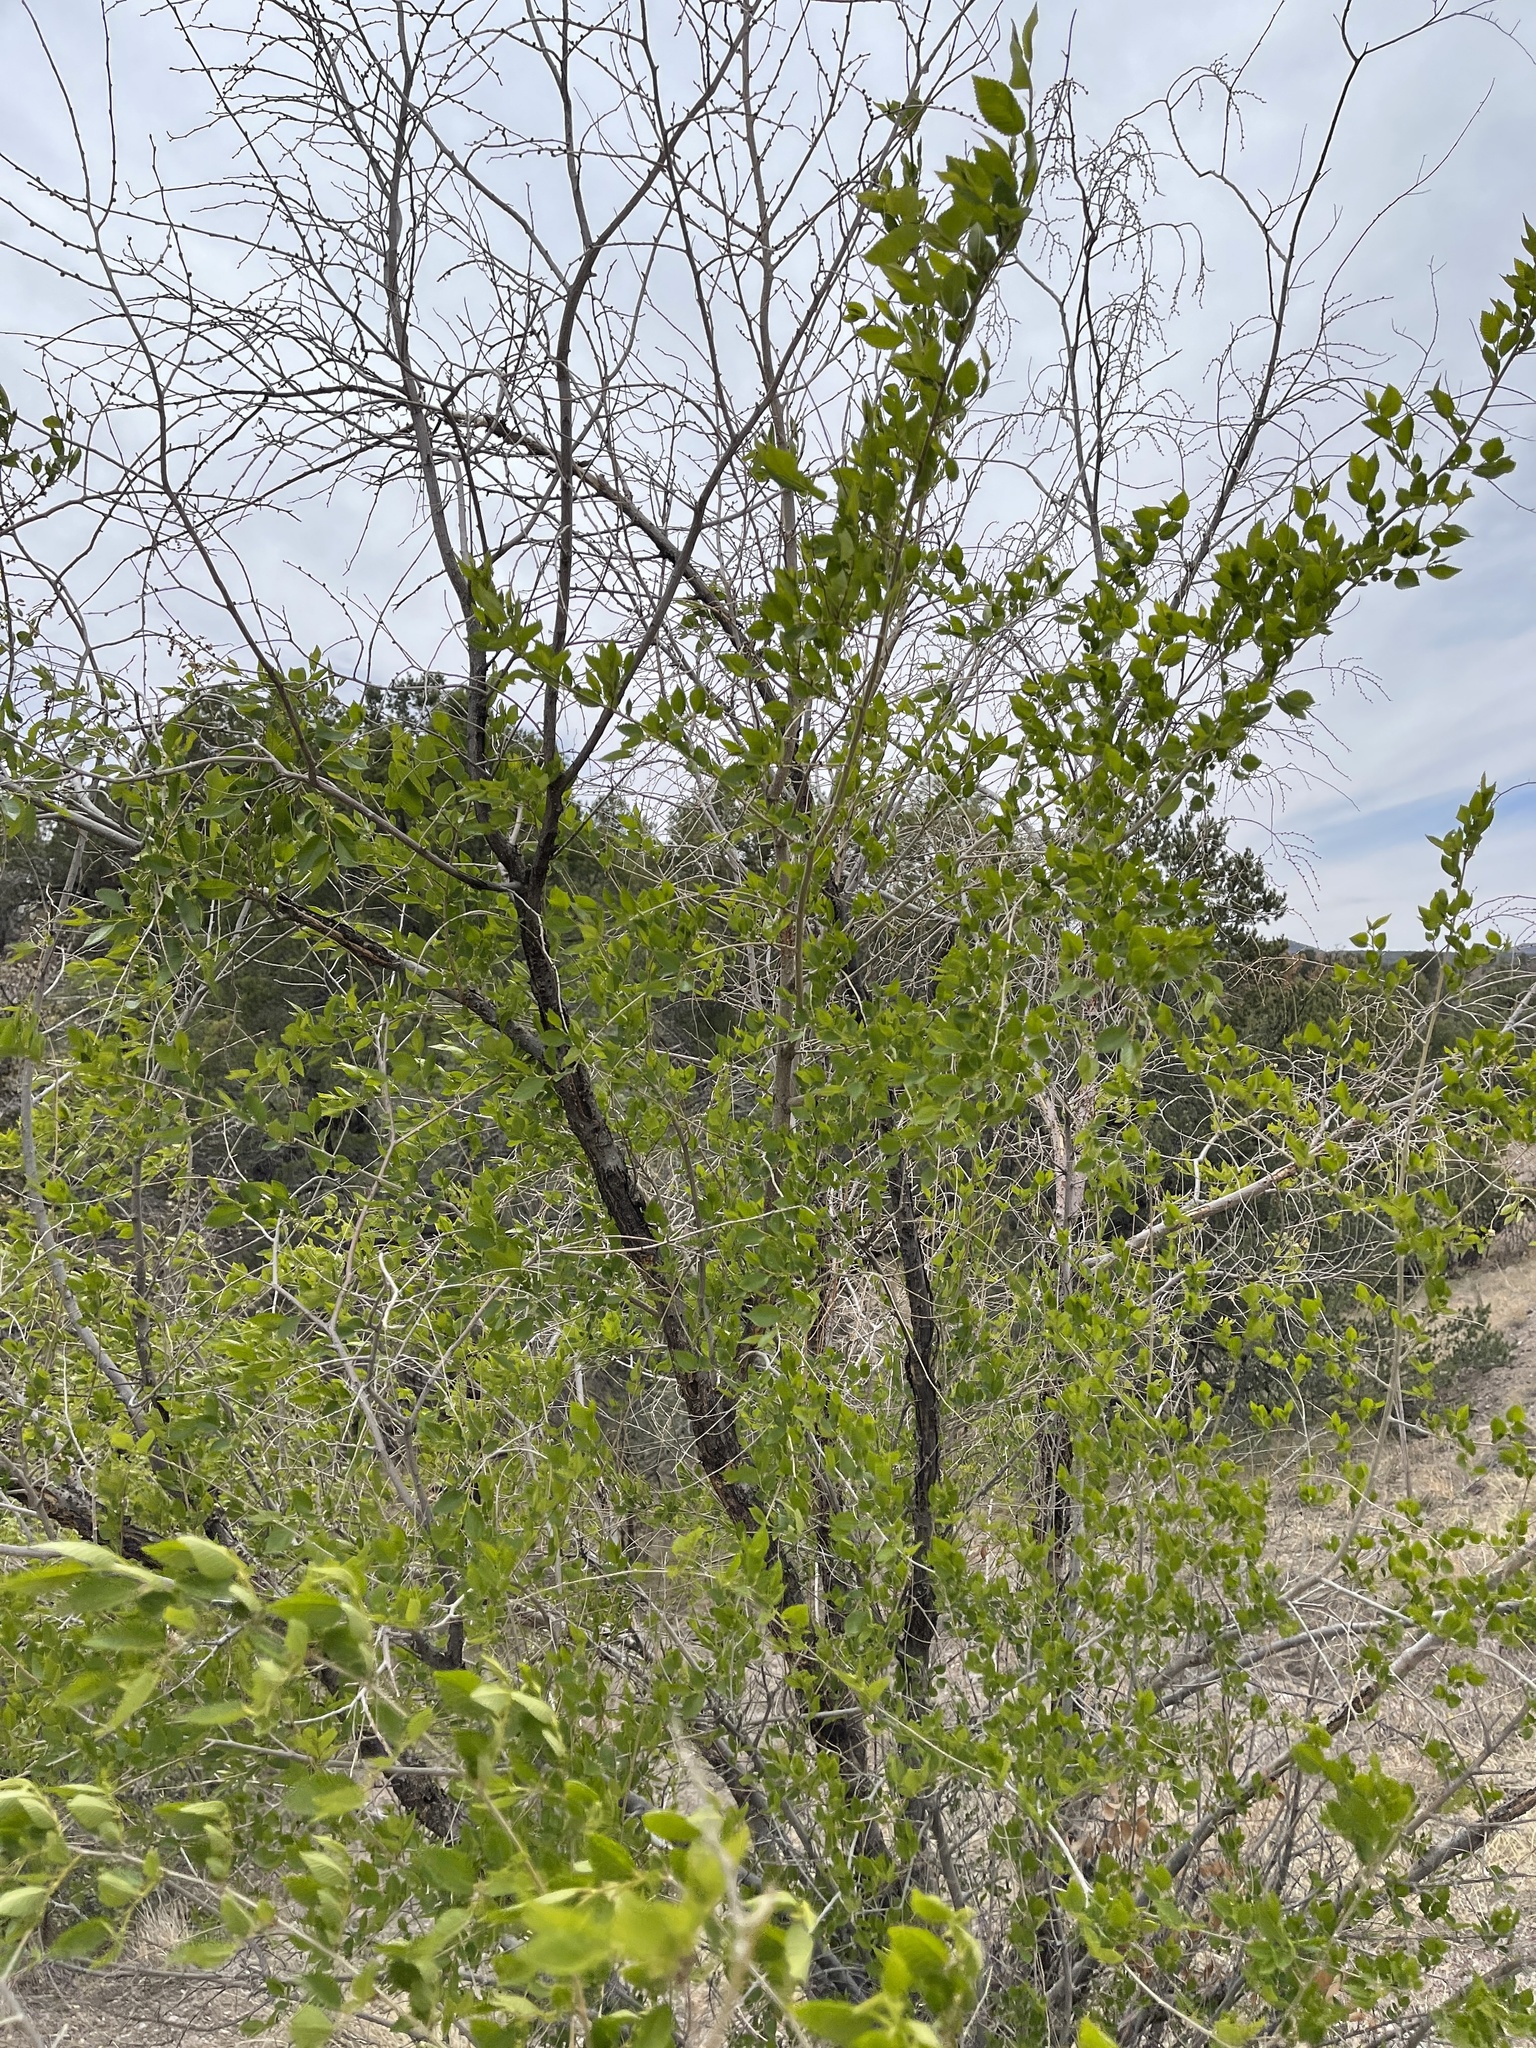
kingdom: Plantae
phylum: Tracheophyta
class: Magnoliopsida
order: Rosales
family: Ulmaceae
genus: Ulmus
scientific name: Ulmus pumila
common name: Siberian elm
